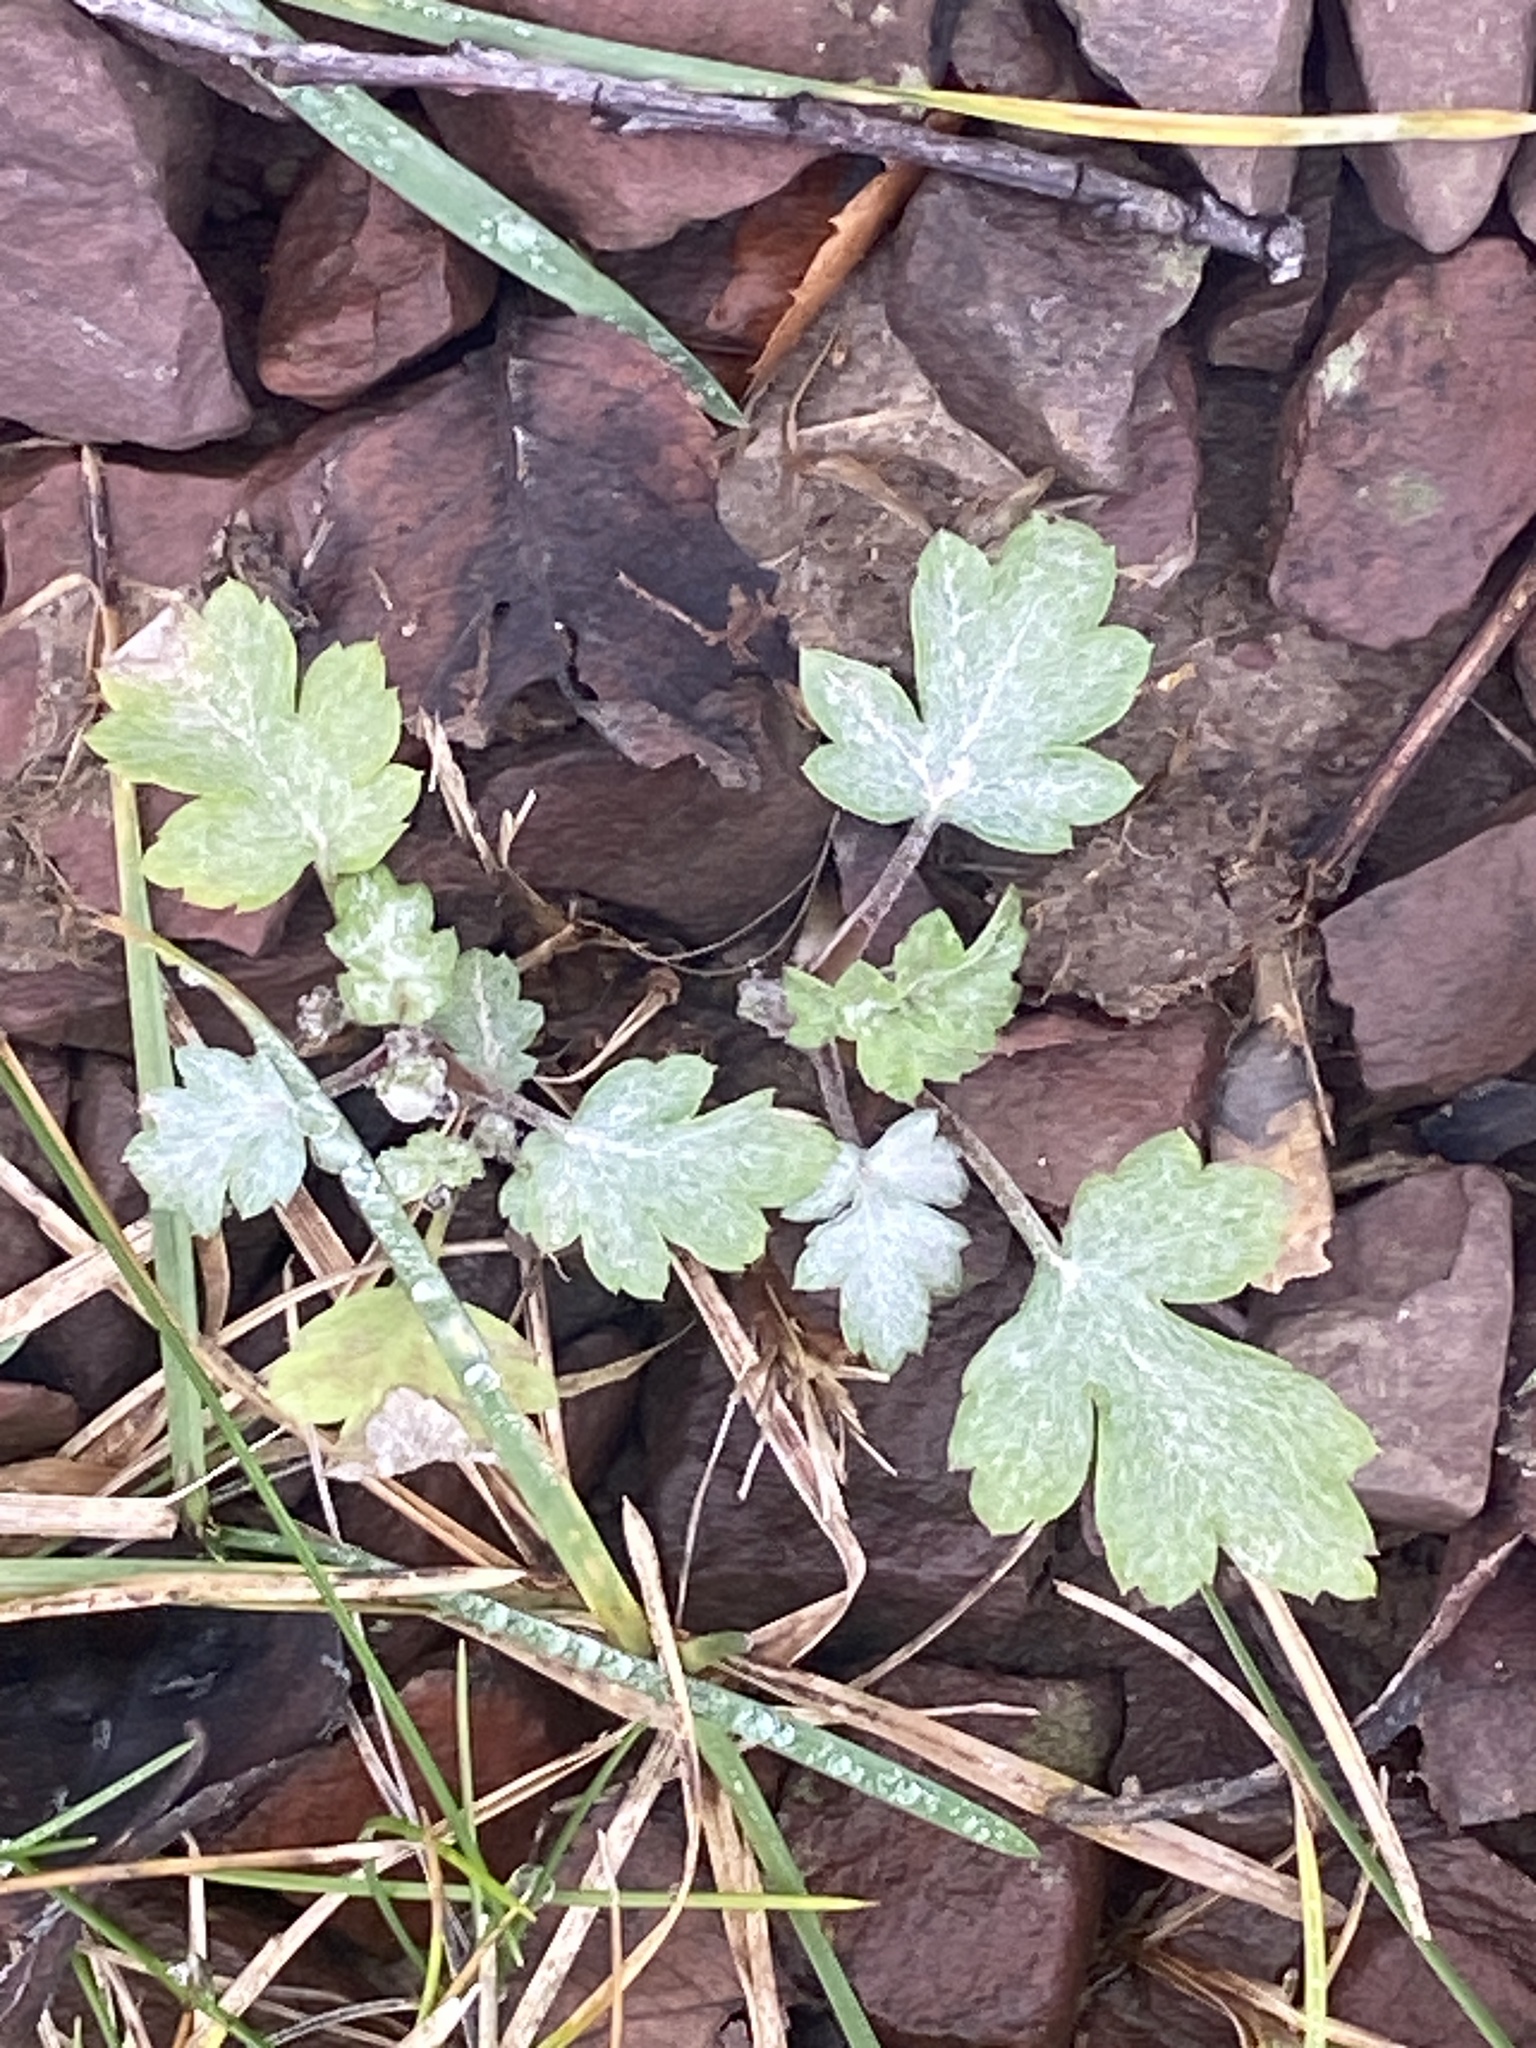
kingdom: Plantae
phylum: Tracheophyta
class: Magnoliopsida
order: Asterales
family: Asteraceae
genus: Artemisia
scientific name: Artemisia vulgaris
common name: Mugwort
